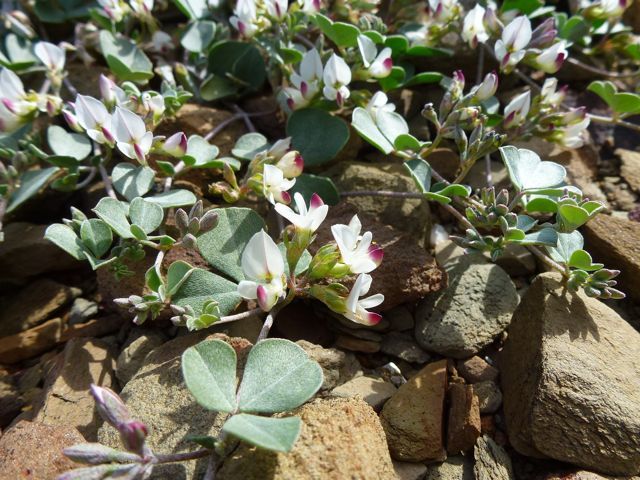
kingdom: Plantae
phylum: Tracheophyta
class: Magnoliopsida
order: Fabales
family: Fabaceae
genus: Lotononis
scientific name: Lotononis pumila
